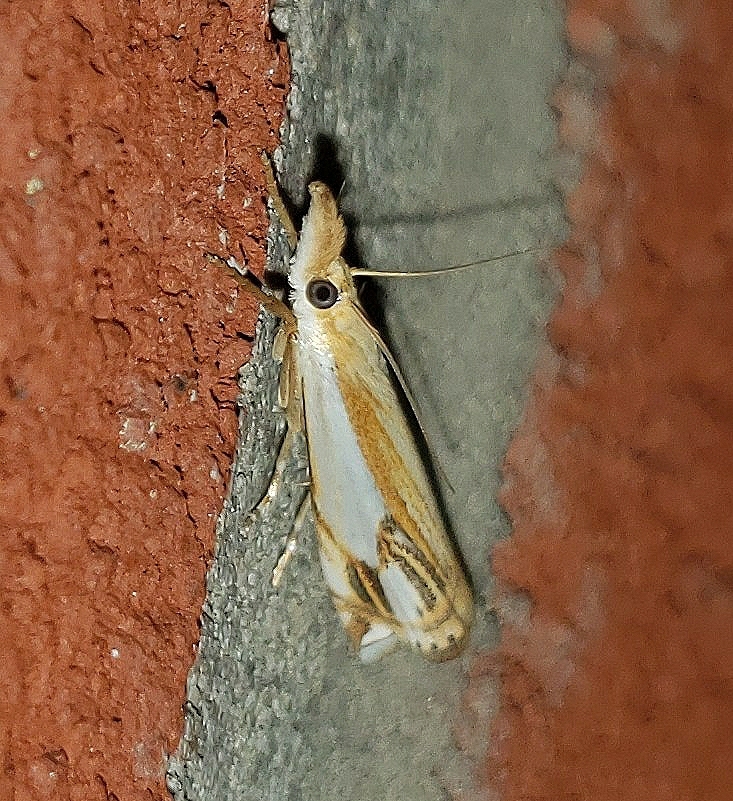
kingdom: Animalia
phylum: Arthropoda
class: Insecta
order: Lepidoptera
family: Crambidae
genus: Crambus
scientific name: Crambus agitatellus
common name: Double-banded grass-veneer
